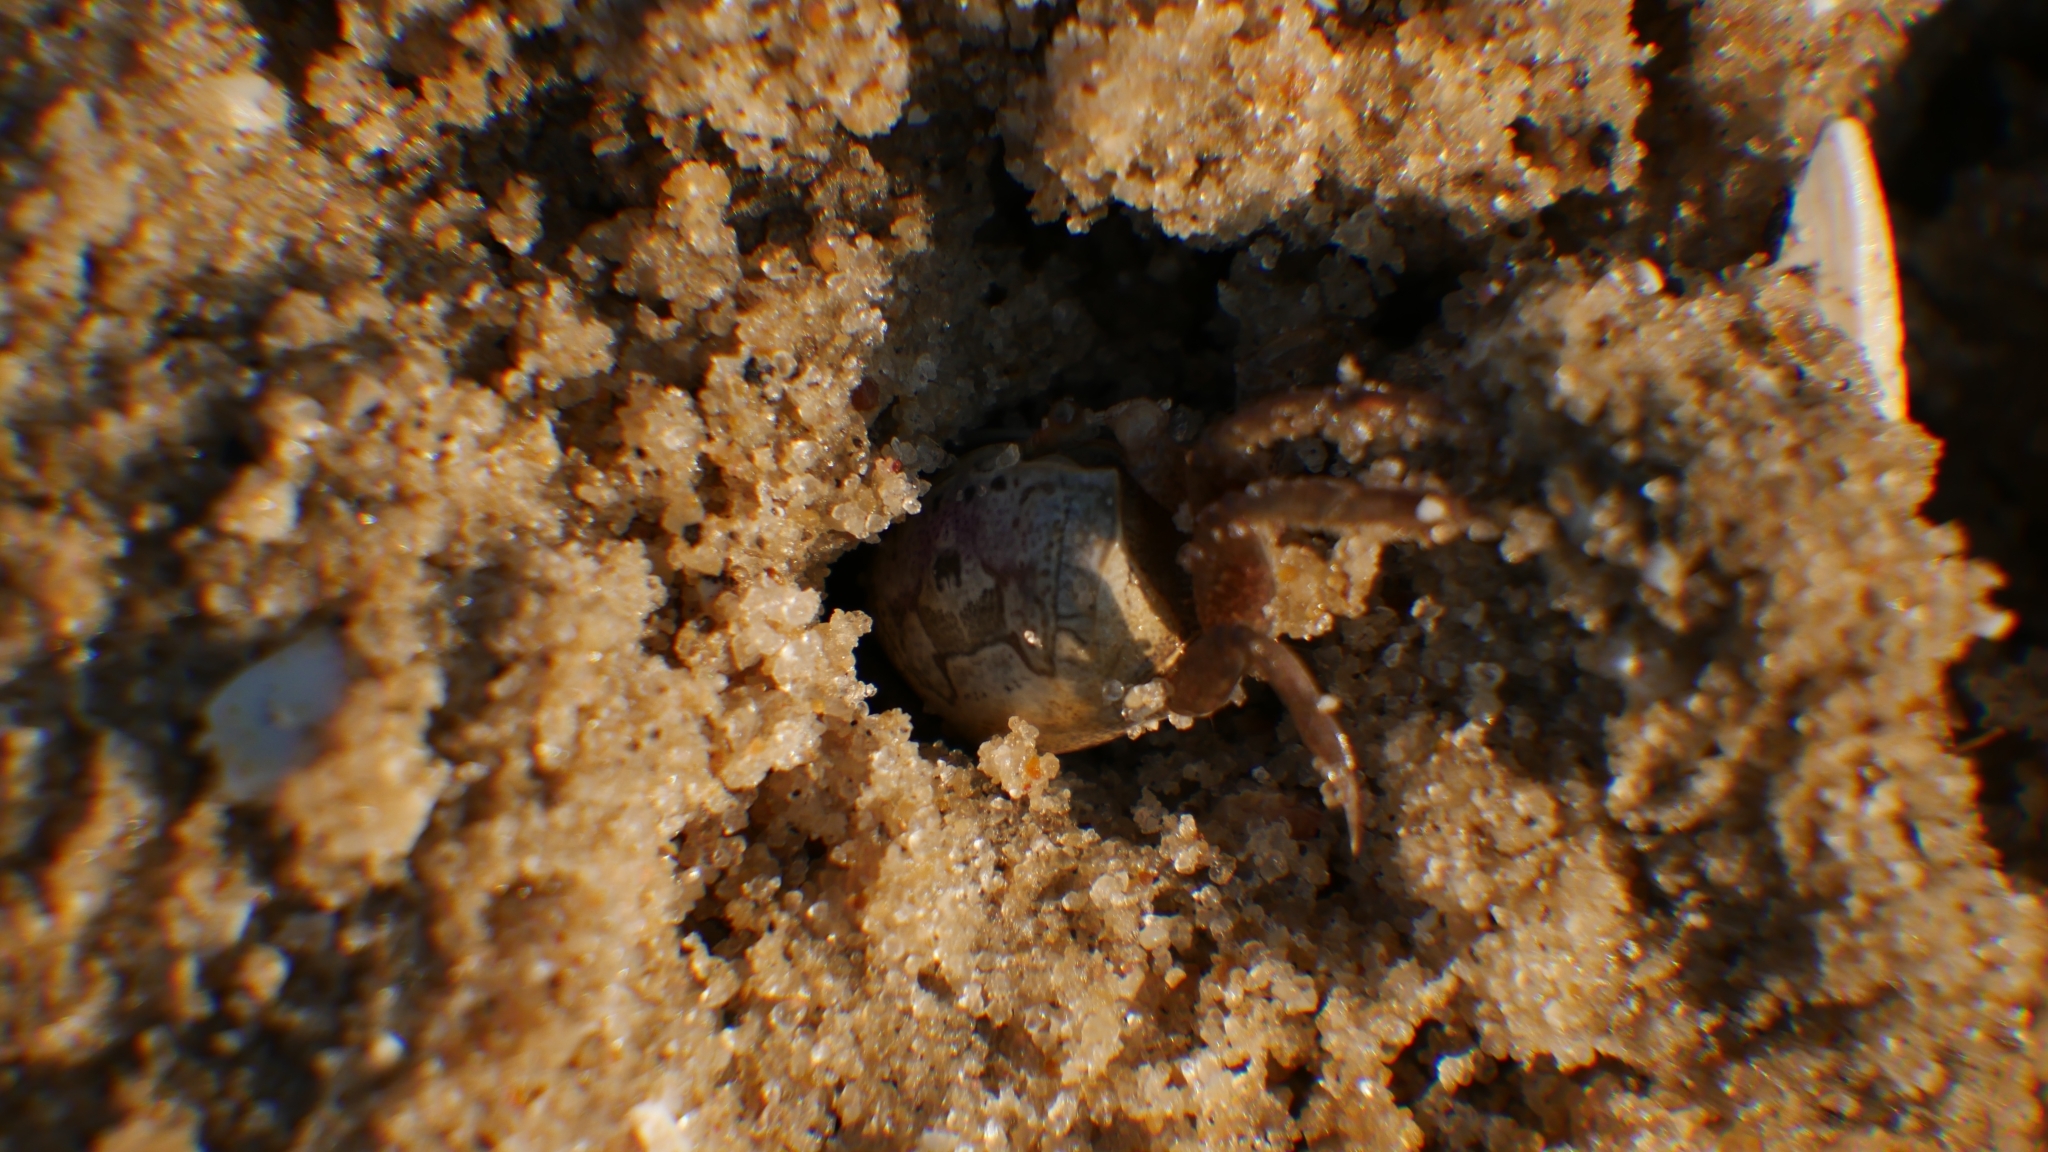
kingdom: Animalia
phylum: Arthropoda
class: Malacostraca
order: Decapoda
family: Ocypodidae
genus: Leptuca
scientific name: Leptuca pugilator
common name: Atlantic sand fiddler crab
